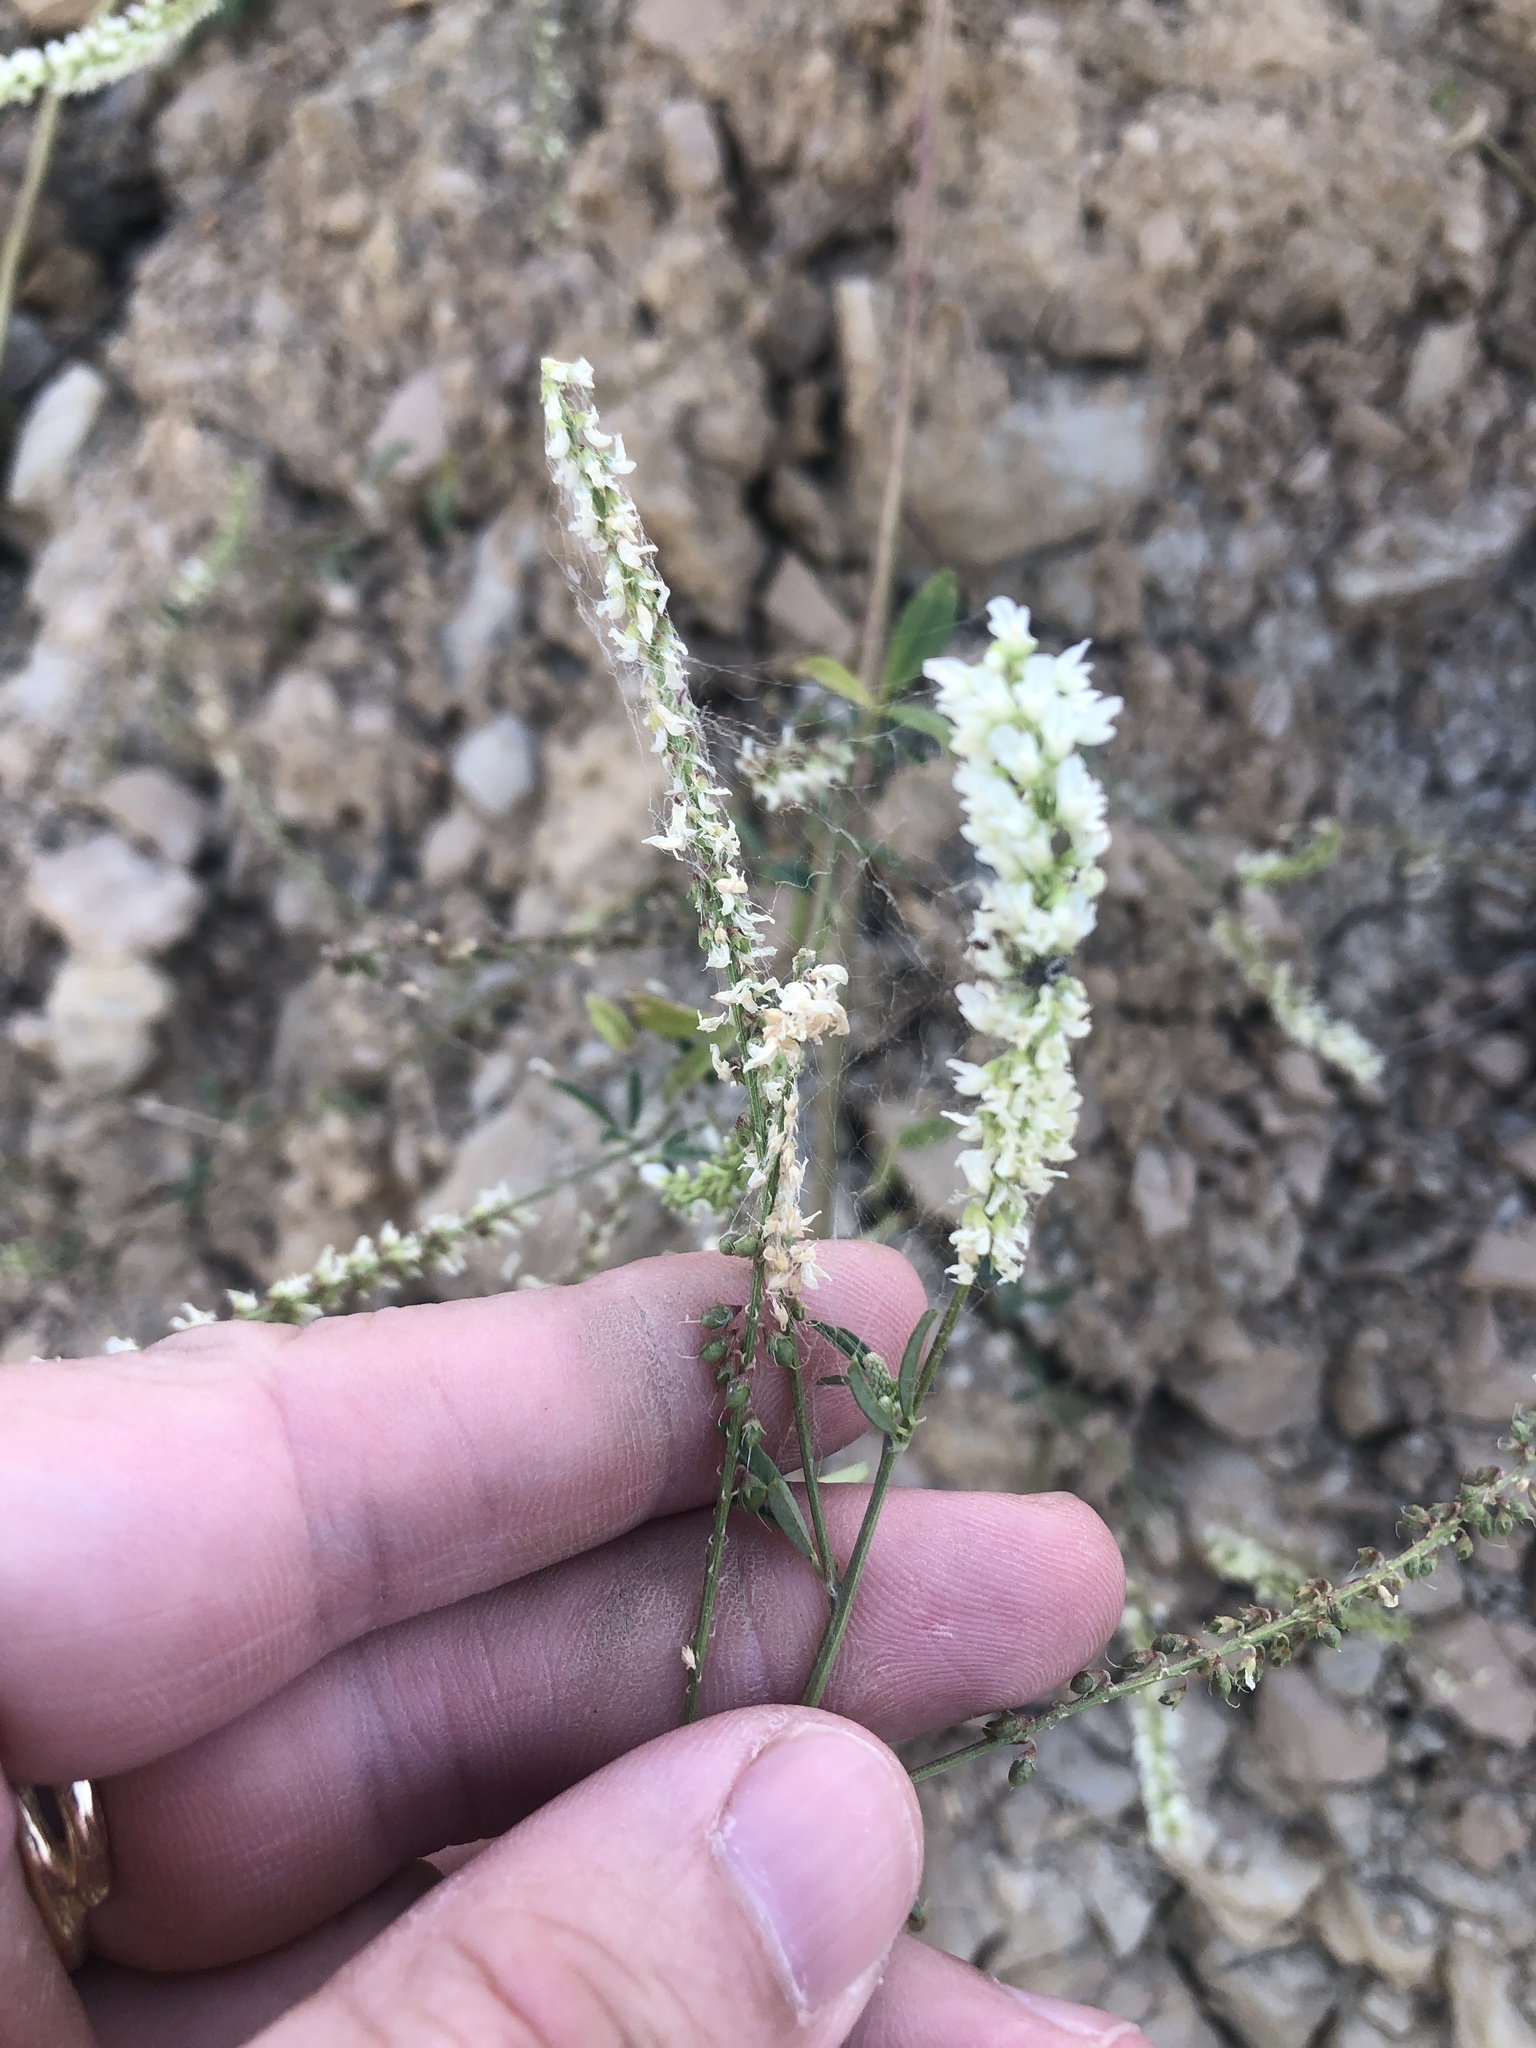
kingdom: Plantae
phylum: Tracheophyta
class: Magnoliopsida
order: Fabales
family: Fabaceae
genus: Melilotus
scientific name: Melilotus albus
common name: White melilot
